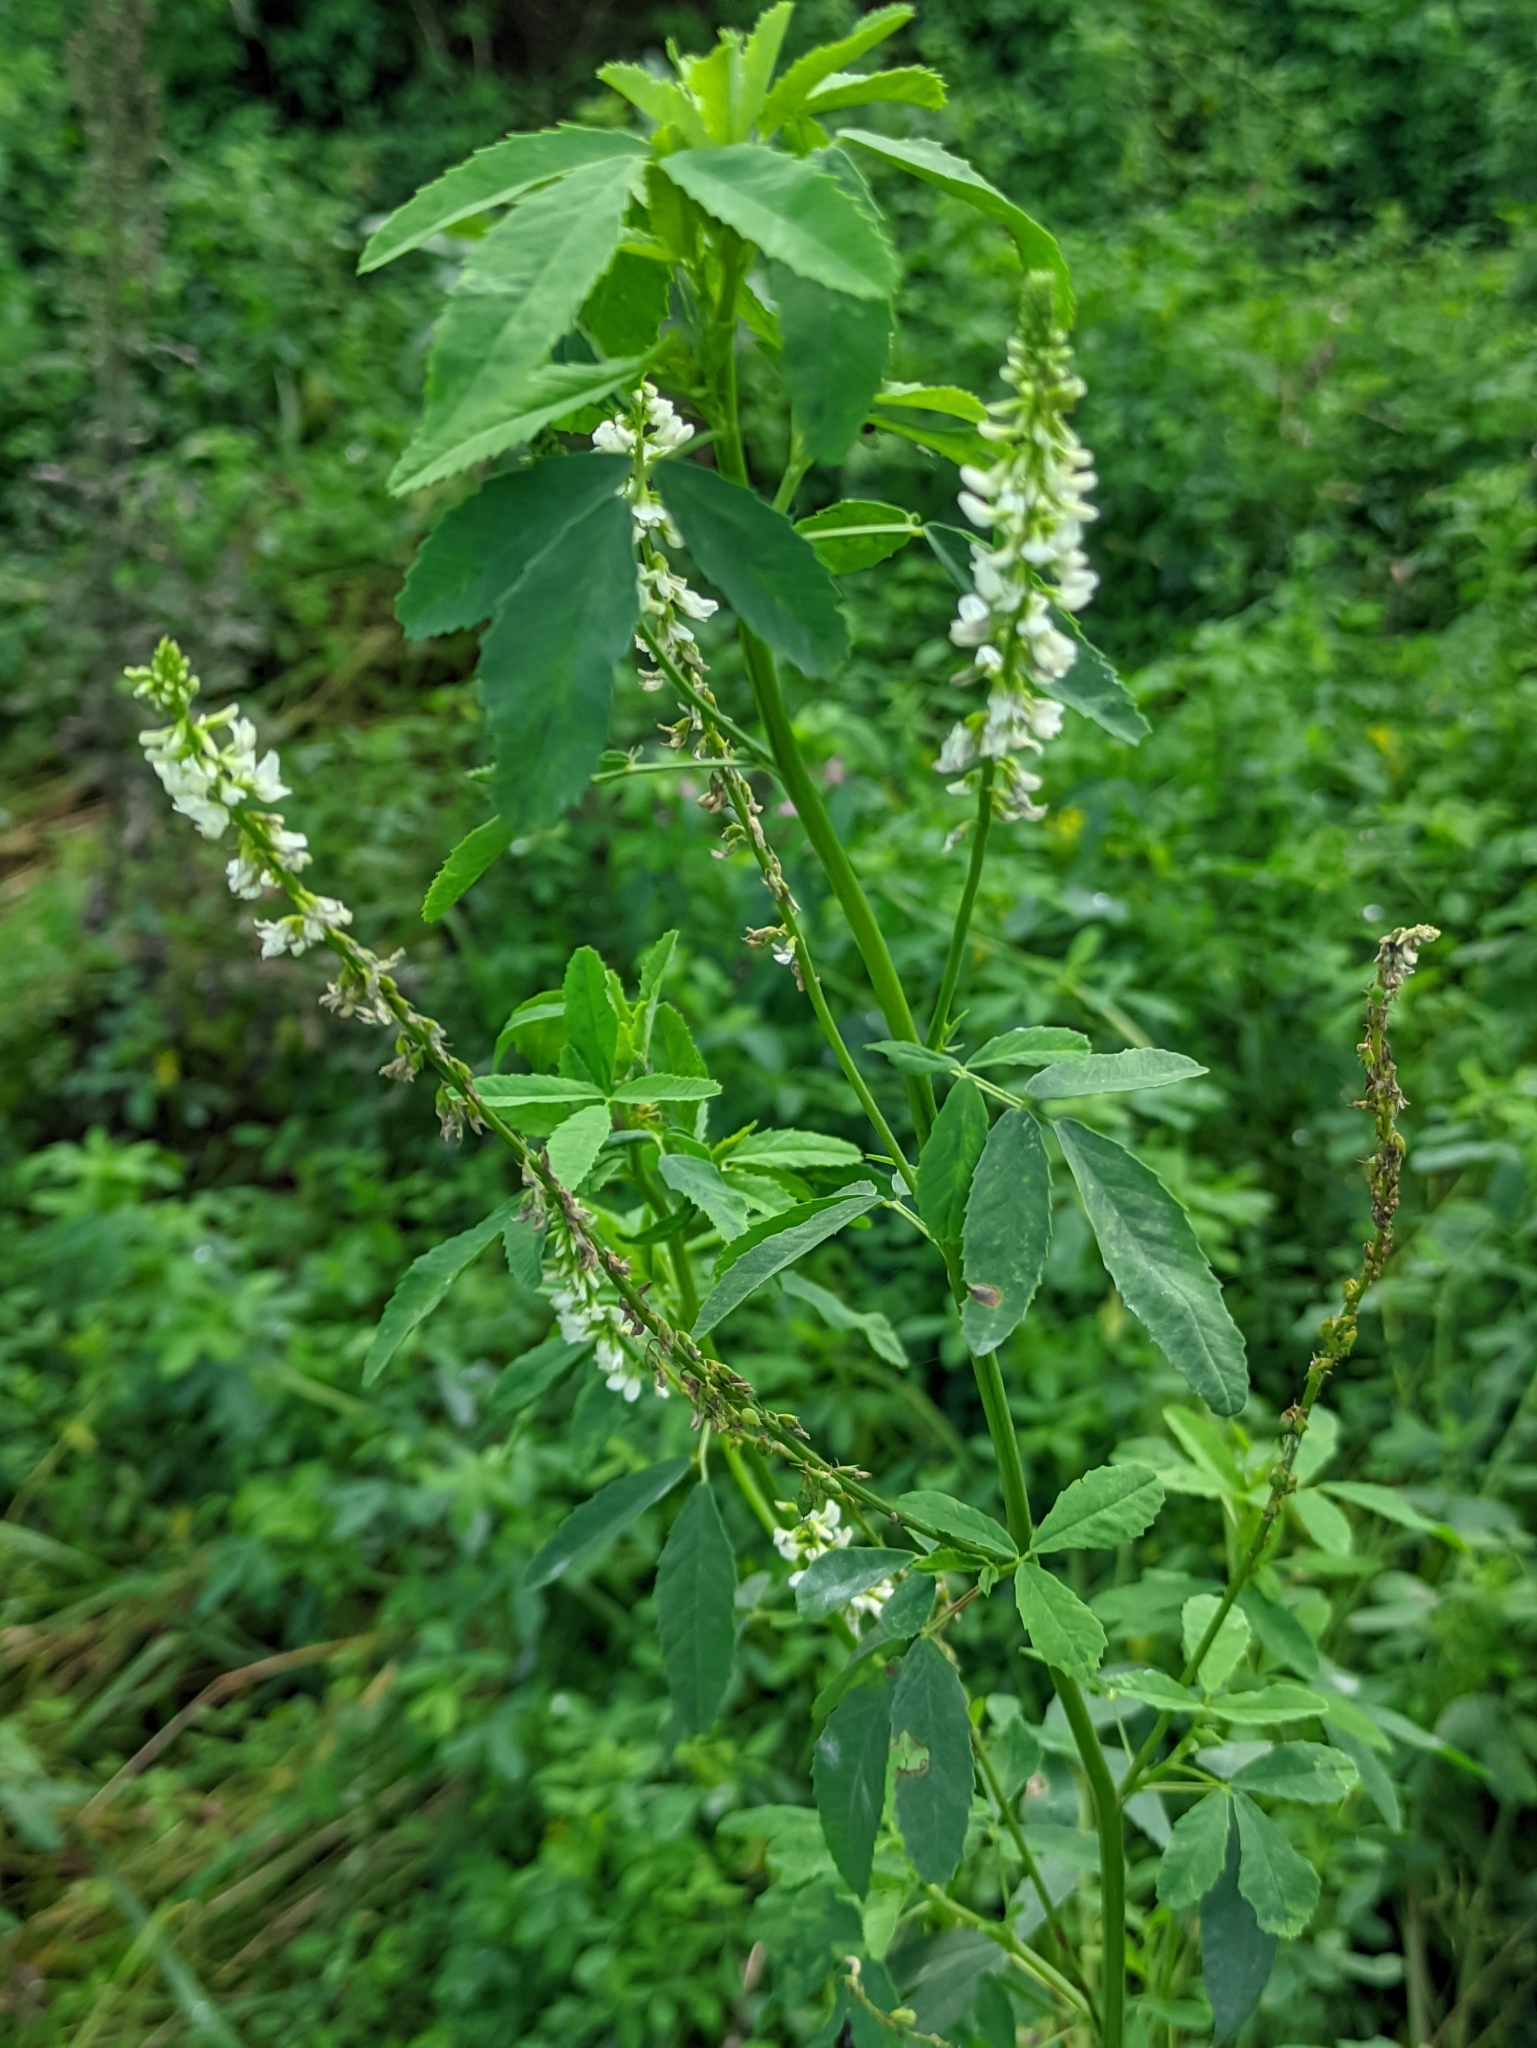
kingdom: Plantae
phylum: Tracheophyta
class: Magnoliopsida
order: Fabales
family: Fabaceae
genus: Melilotus
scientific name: Melilotus albus
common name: White melilot
